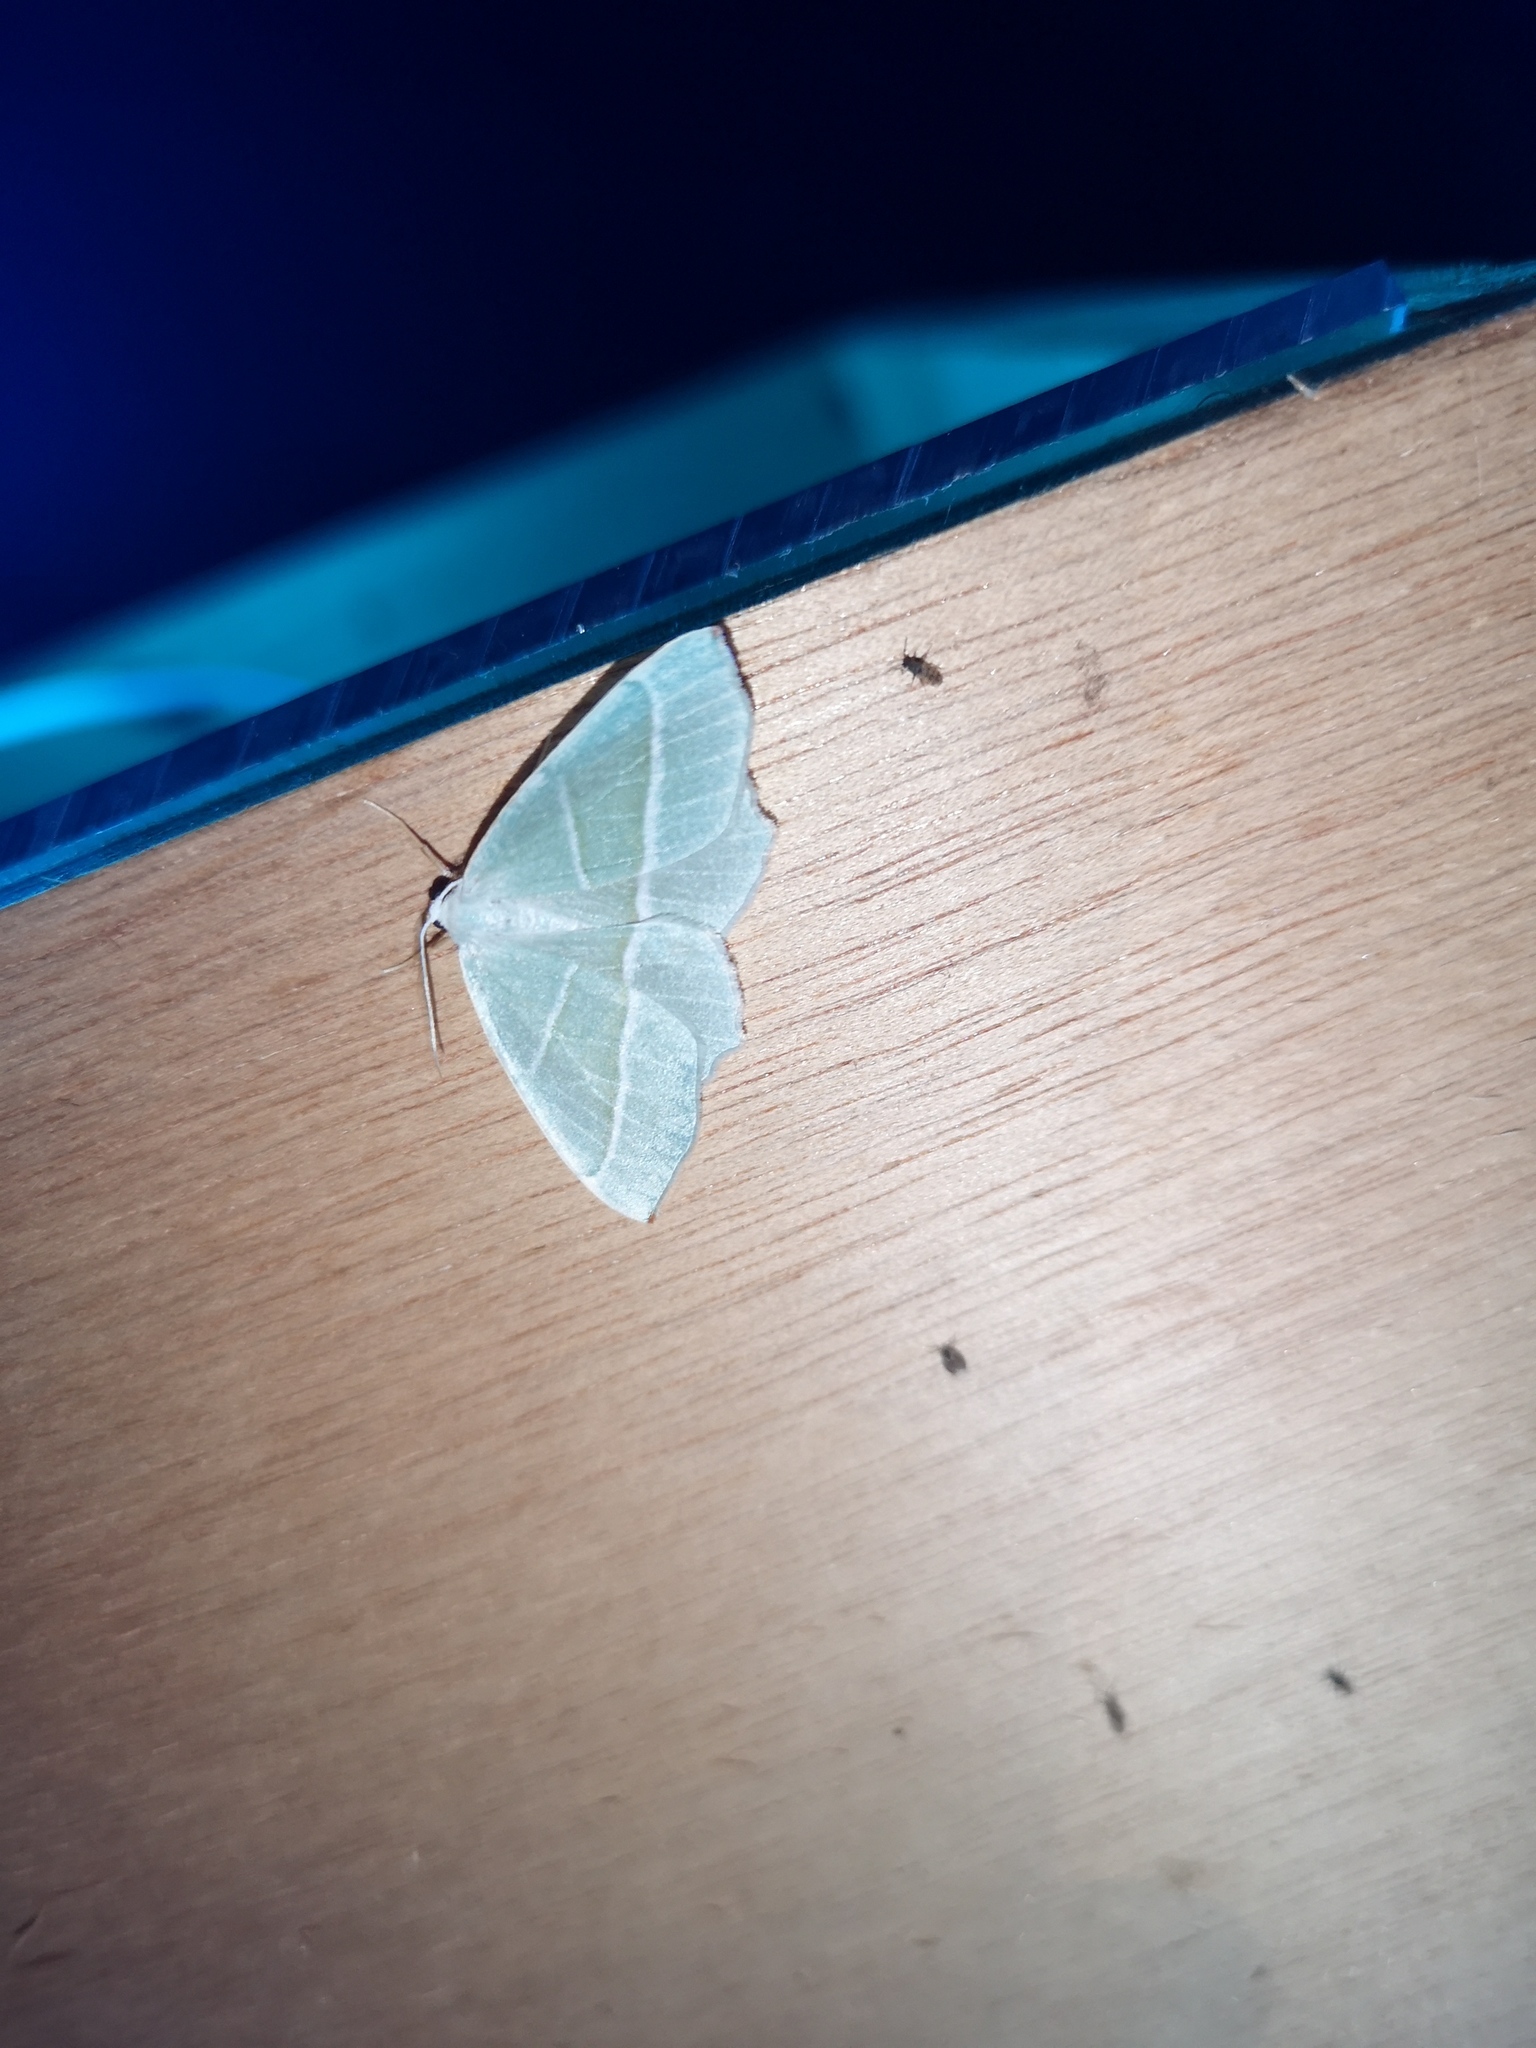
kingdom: Animalia
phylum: Arthropoda
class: Insecta
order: Lepidoptera
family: Geometridae
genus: Campaea
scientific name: Campaea margaritaria
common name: Light emerald
